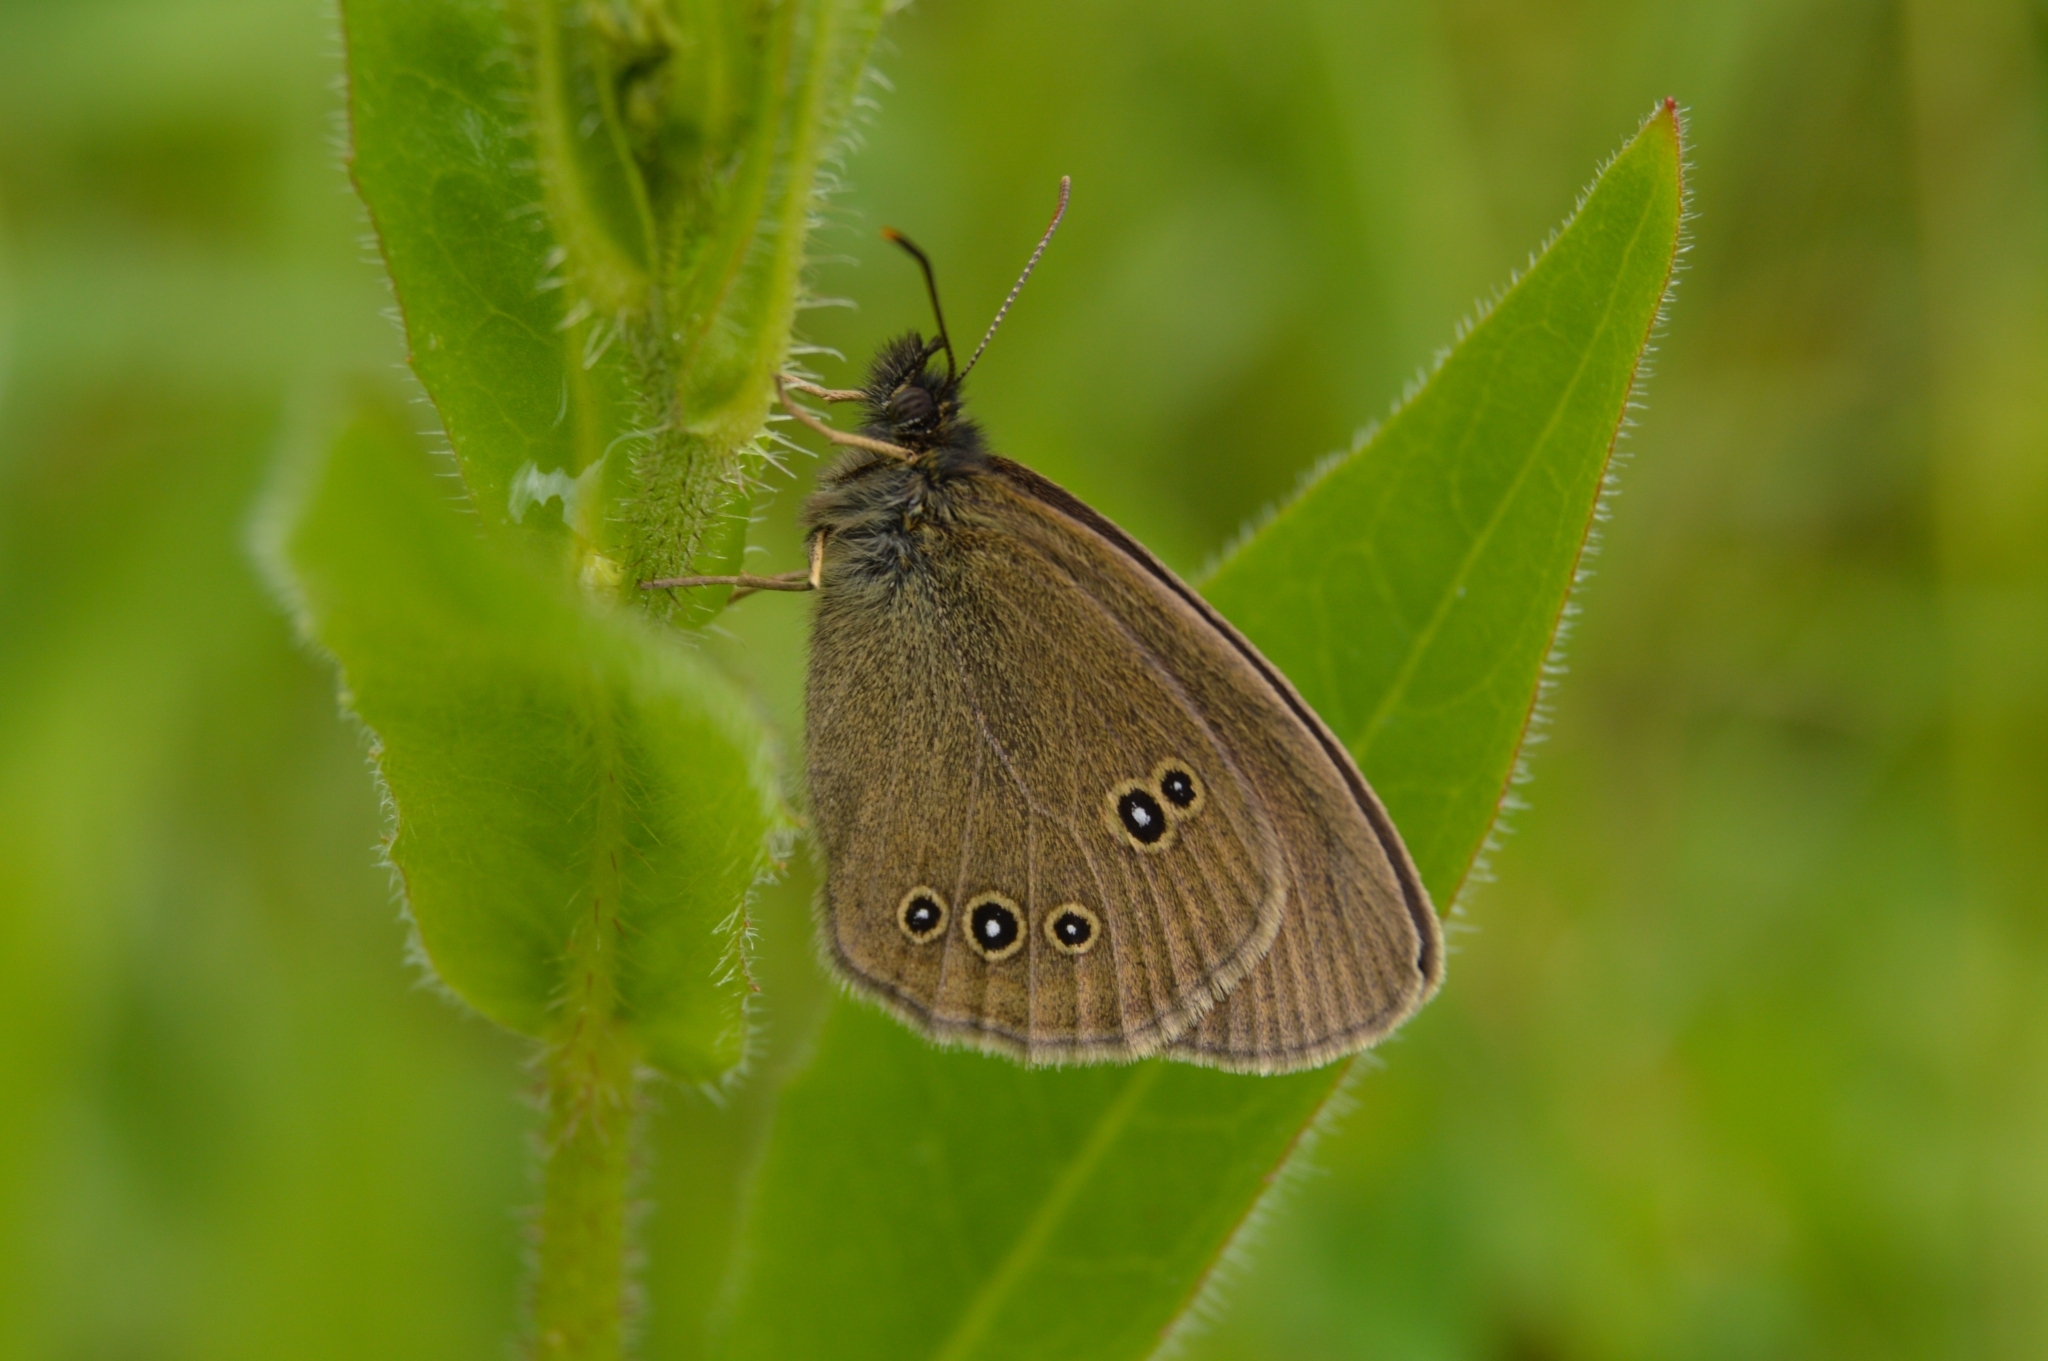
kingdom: Animalia
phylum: Arthropoda
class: Insecta
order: Lepidoptera
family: Nymphalidae
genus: Aphantopus
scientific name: Aphantopus hyperantus
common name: Ringlet
